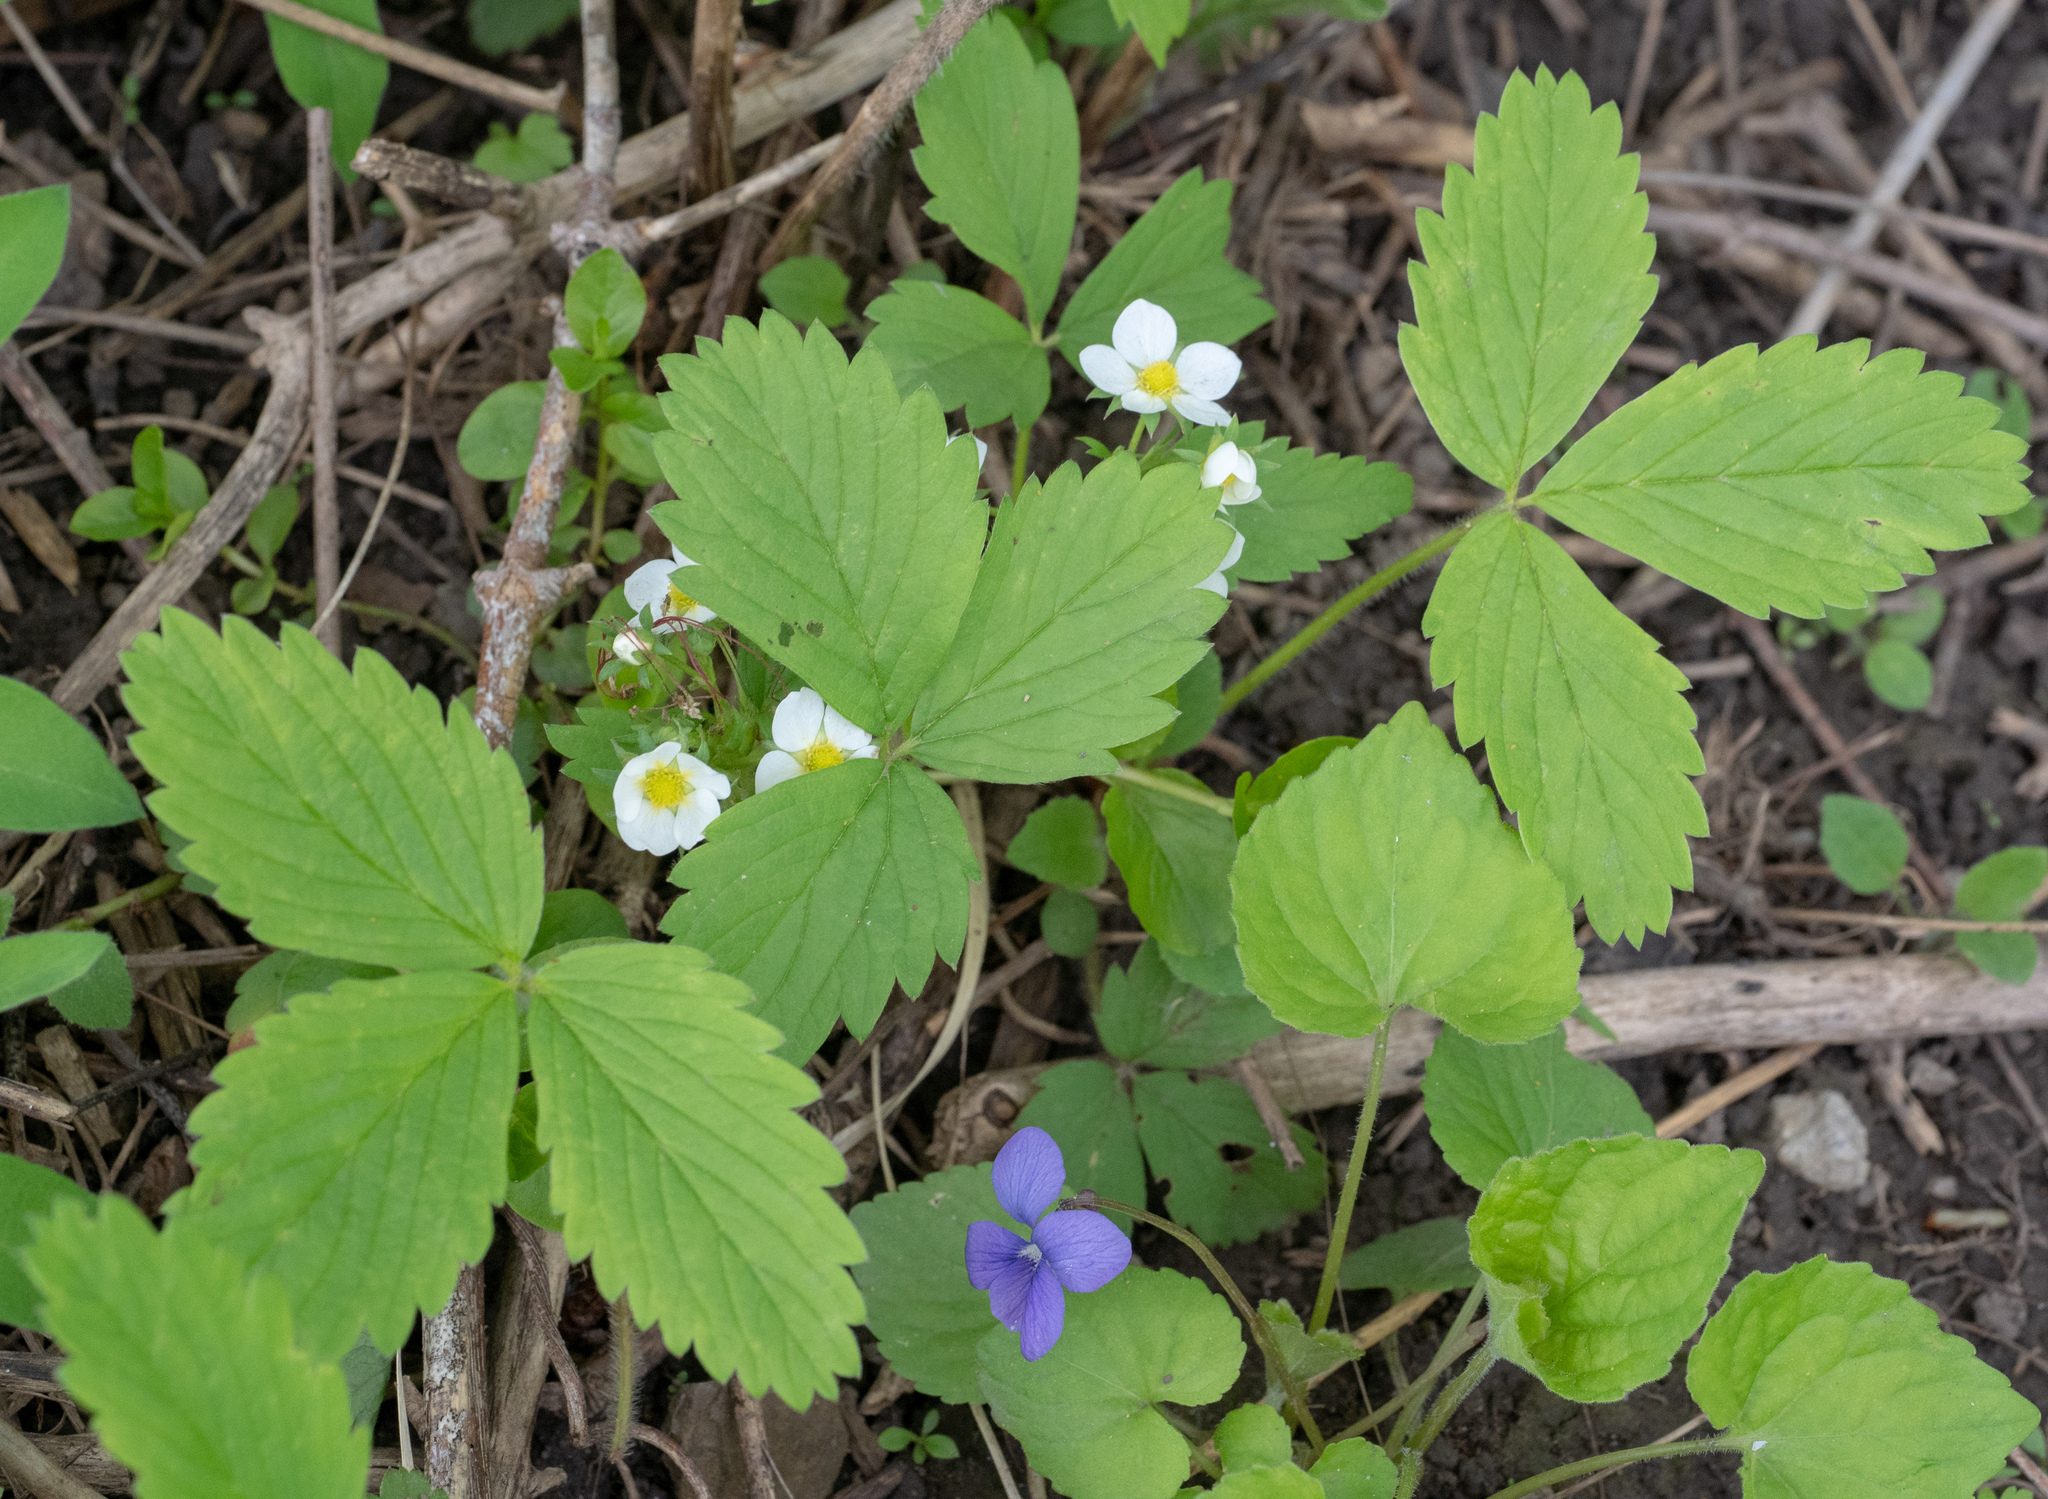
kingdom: Plantae
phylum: Tracheophyta
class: Magnoliopsida
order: Rosales
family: Rosaceae
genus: Fragaria
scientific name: Fragaria virginiana
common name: Thickleaved wild strawberry
